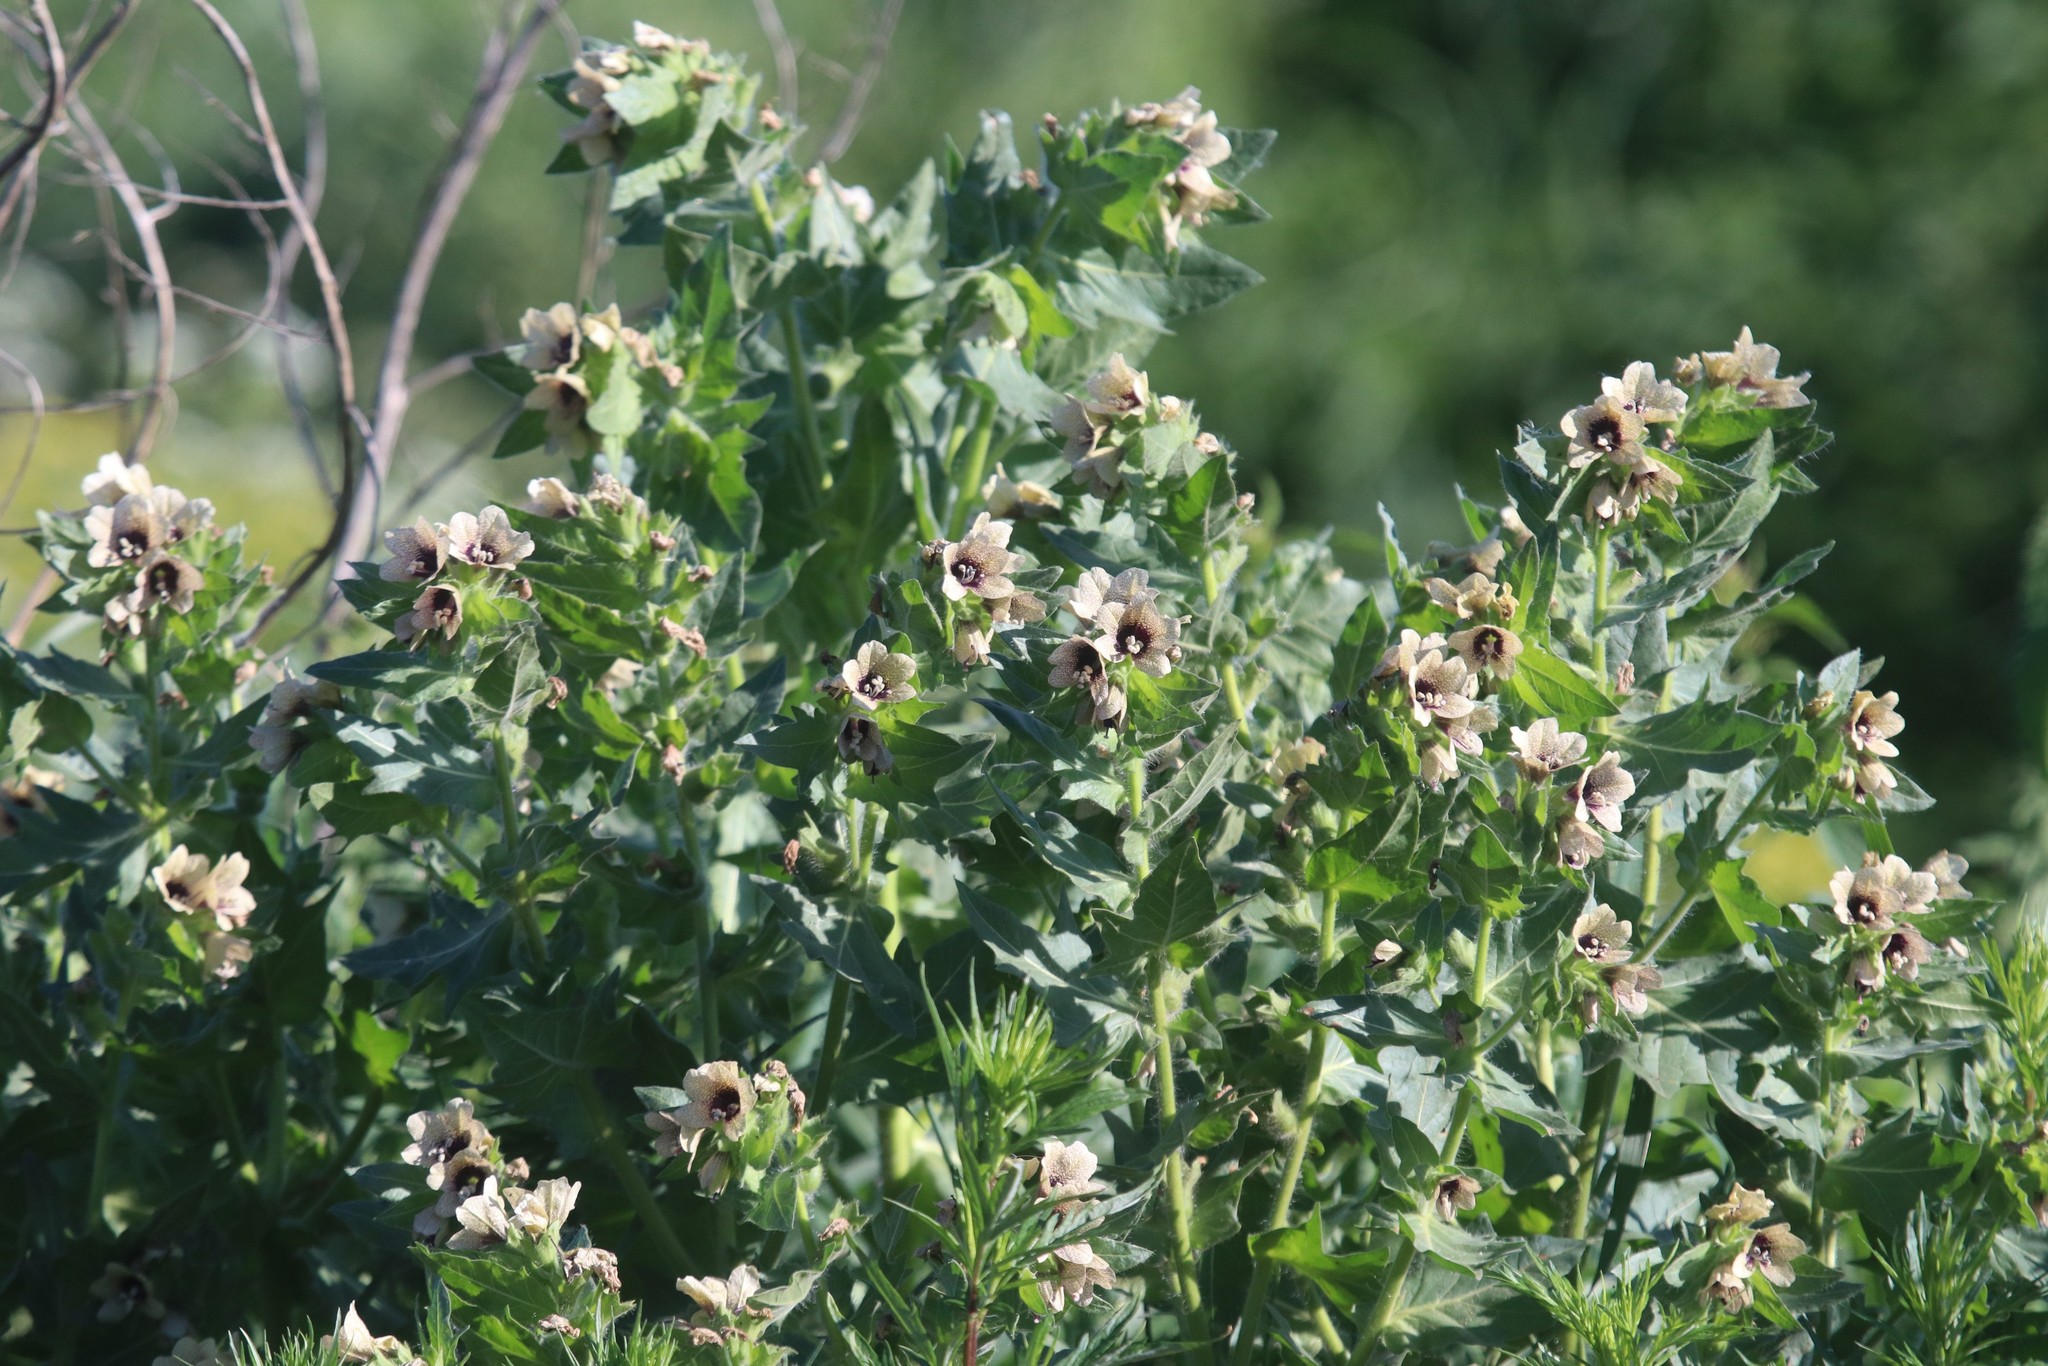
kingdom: Plantae
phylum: Tracheophyta
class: Magnoliopsida
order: Solanales
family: Solanaceae
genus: Hyoscyamus
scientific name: Hyoscyamus niger
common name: Henbane
